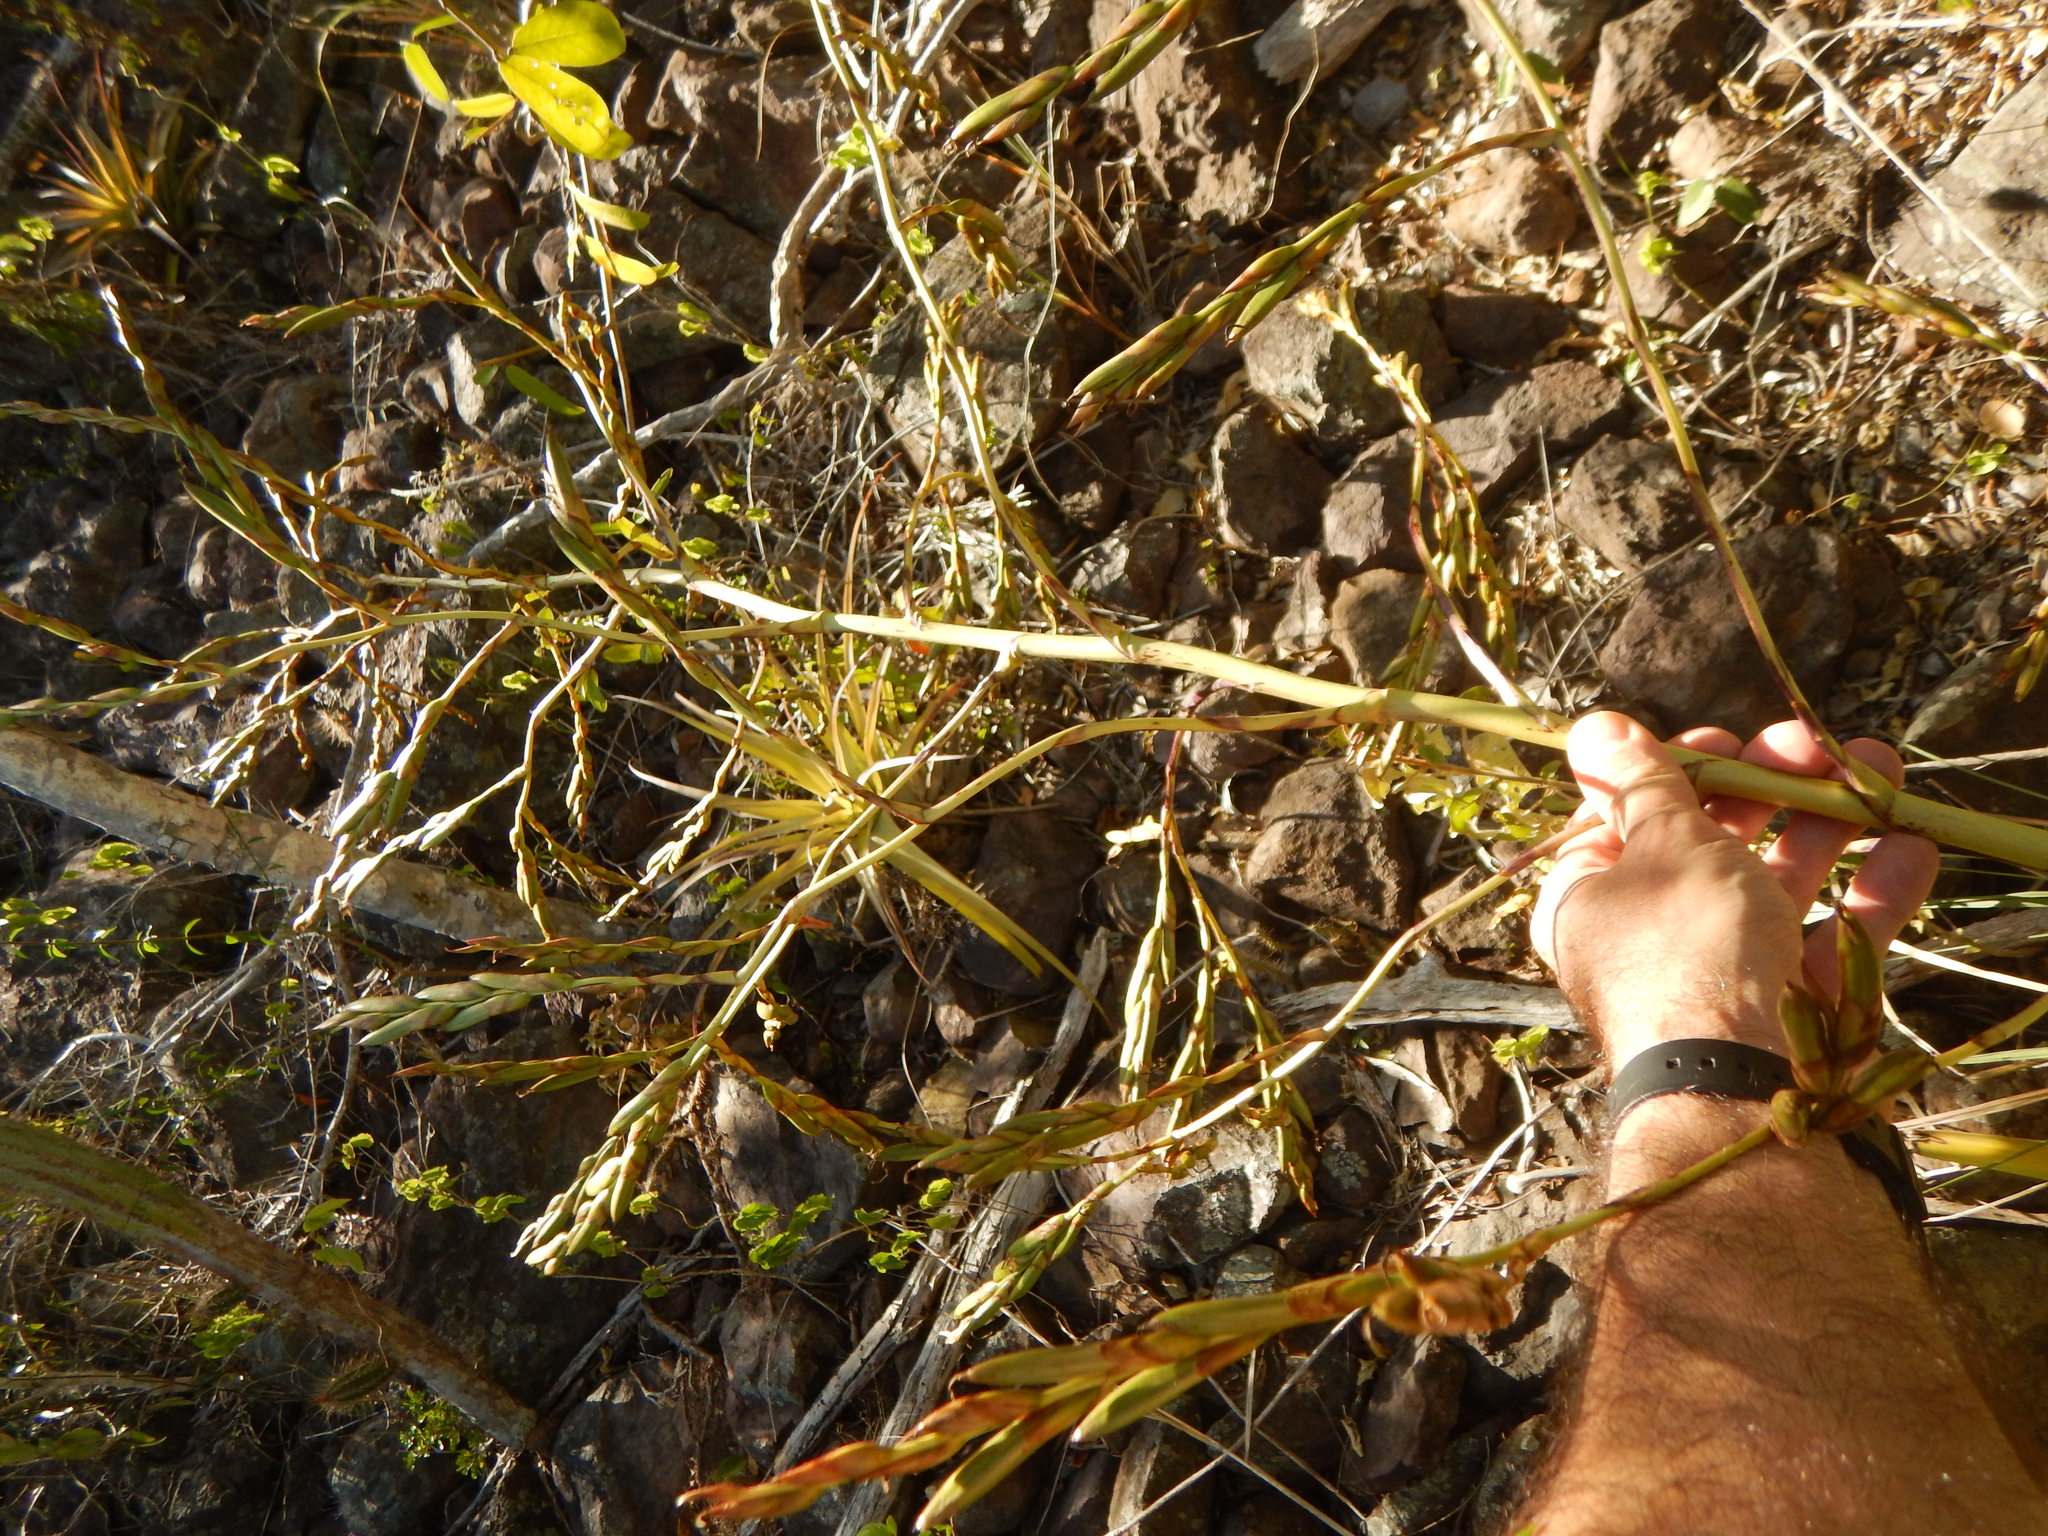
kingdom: Plantae
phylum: Tracheophyta
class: Liliopsida
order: Poales
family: Bromeliaceae
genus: Tillandsia
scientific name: Tillandsia utriculata
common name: Wild pine
